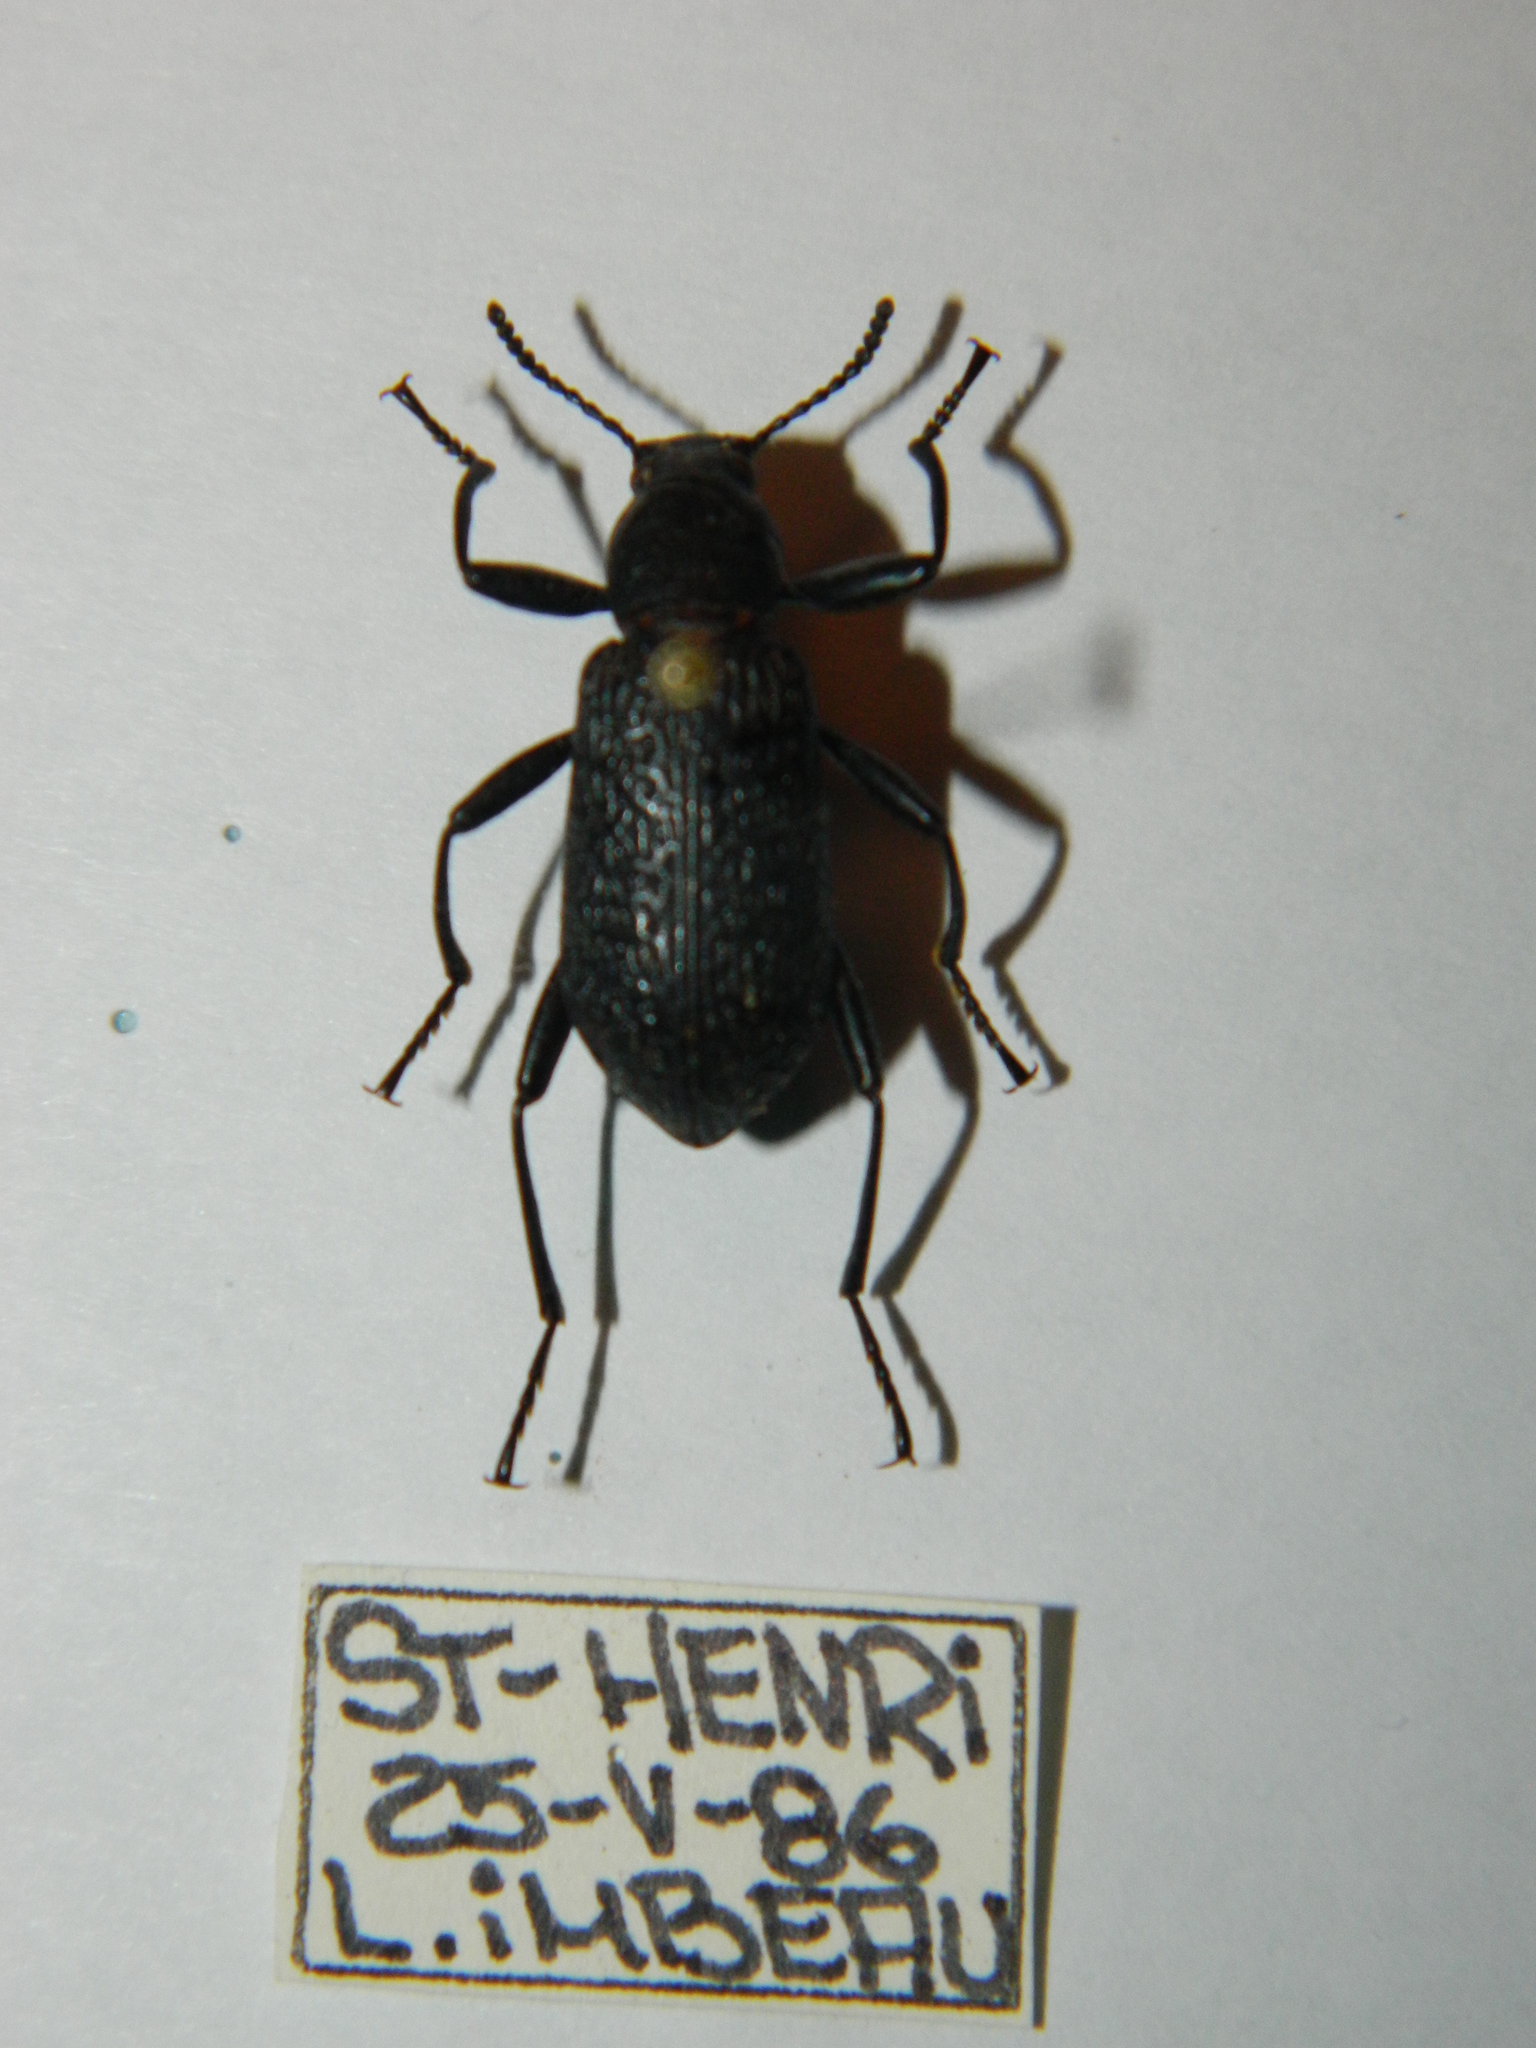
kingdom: Animalia
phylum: Arthropoda
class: Insecta
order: Coleoptera
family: Tenebrionidae
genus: Upis
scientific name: Upis ceramboides
